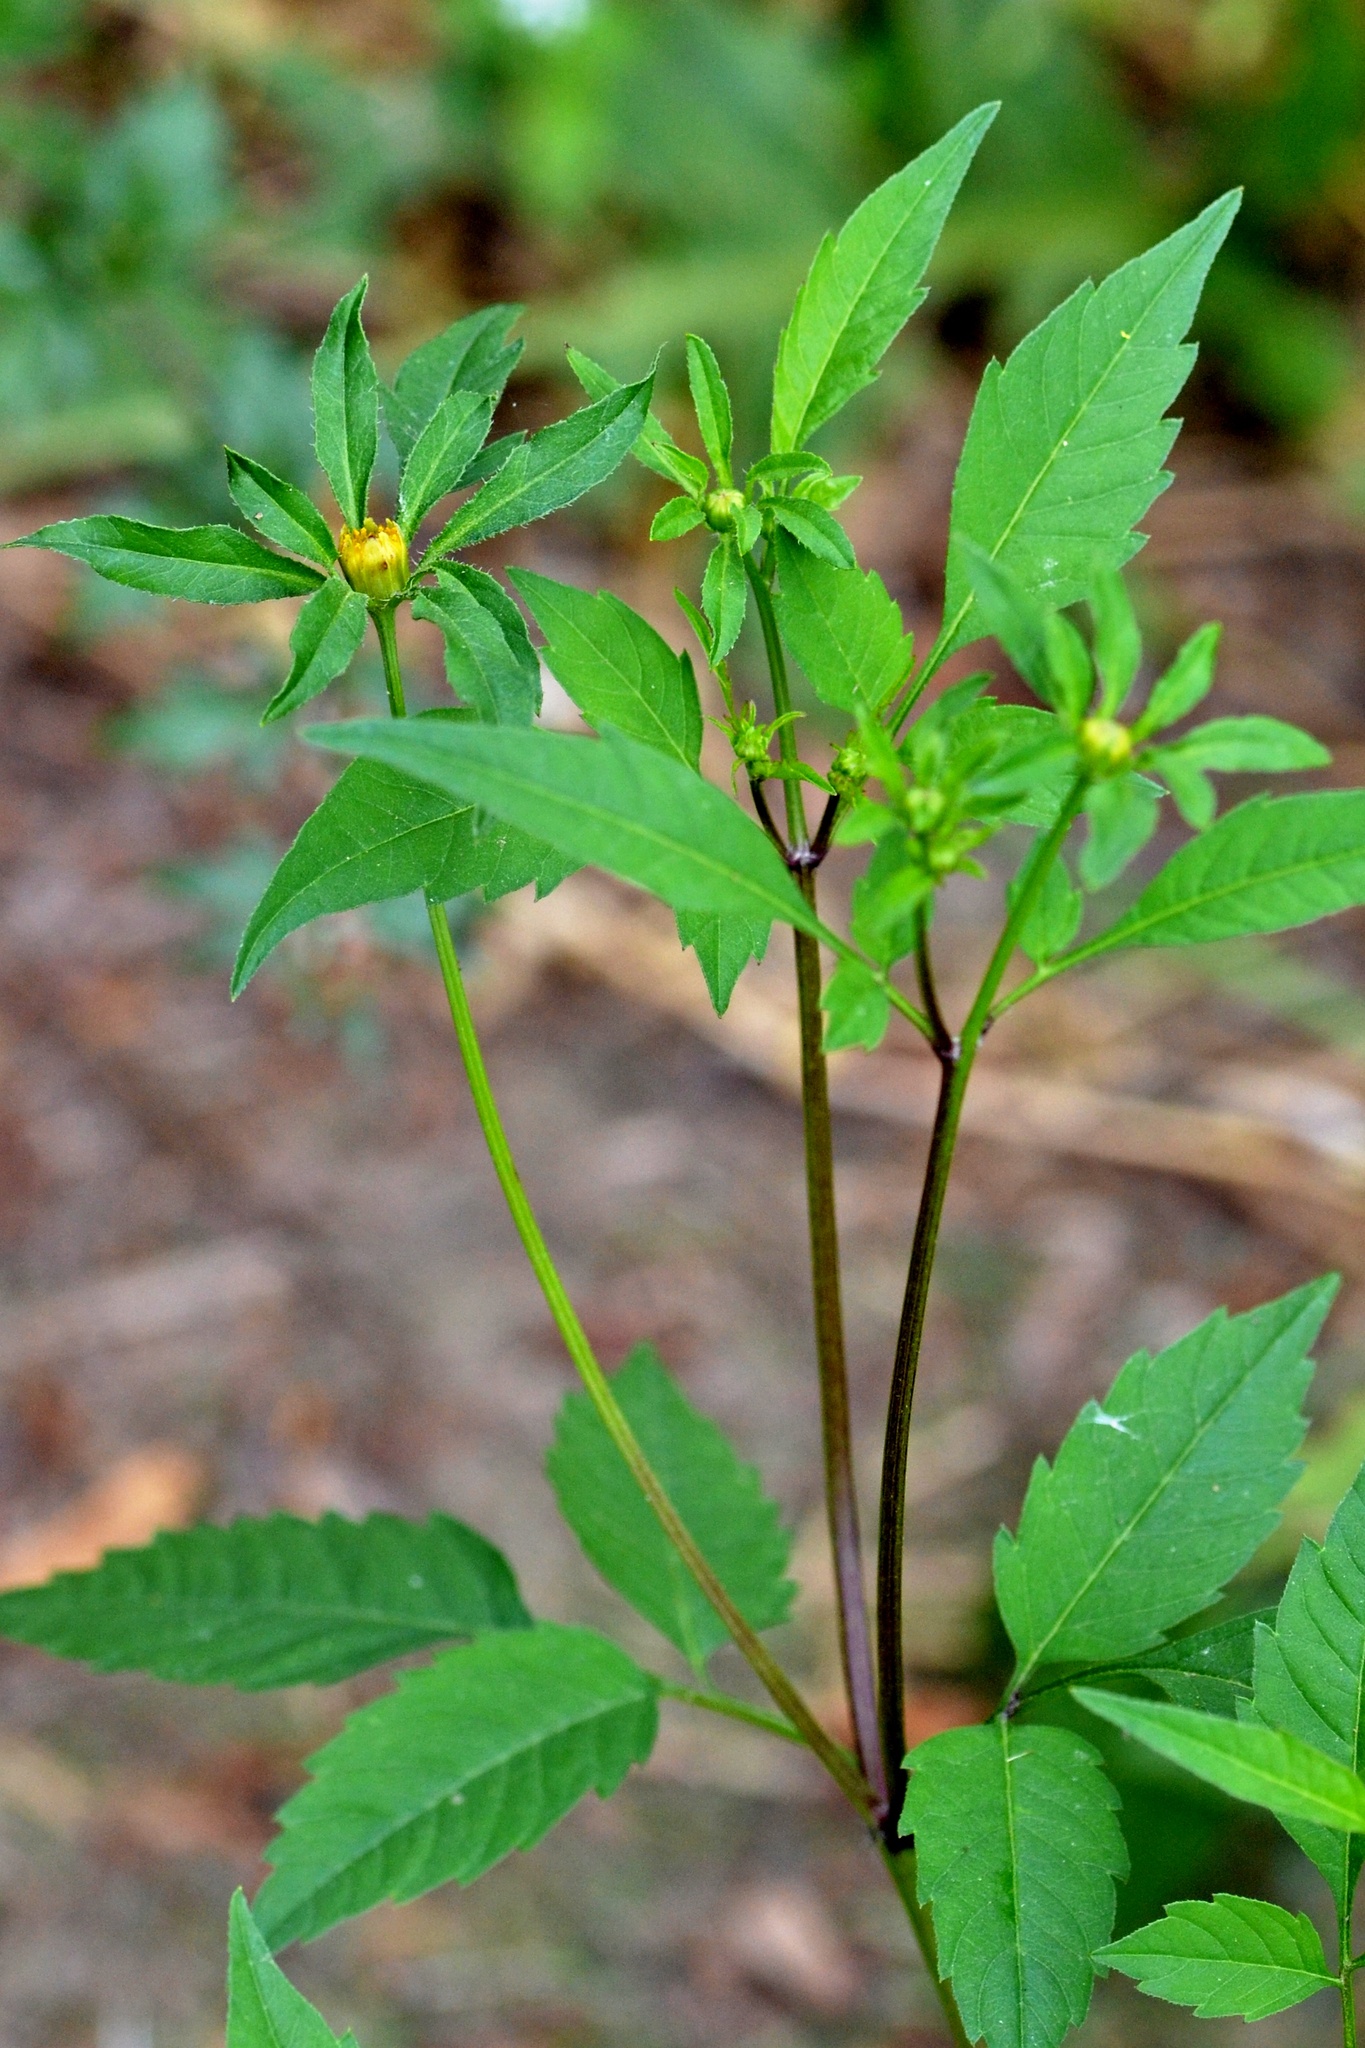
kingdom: Plantae
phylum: Tracheophyta
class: Magnoliopsida
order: Asterales
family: Asteraceae
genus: Bidens
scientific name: Bidens frondosa
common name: Beggarticks
